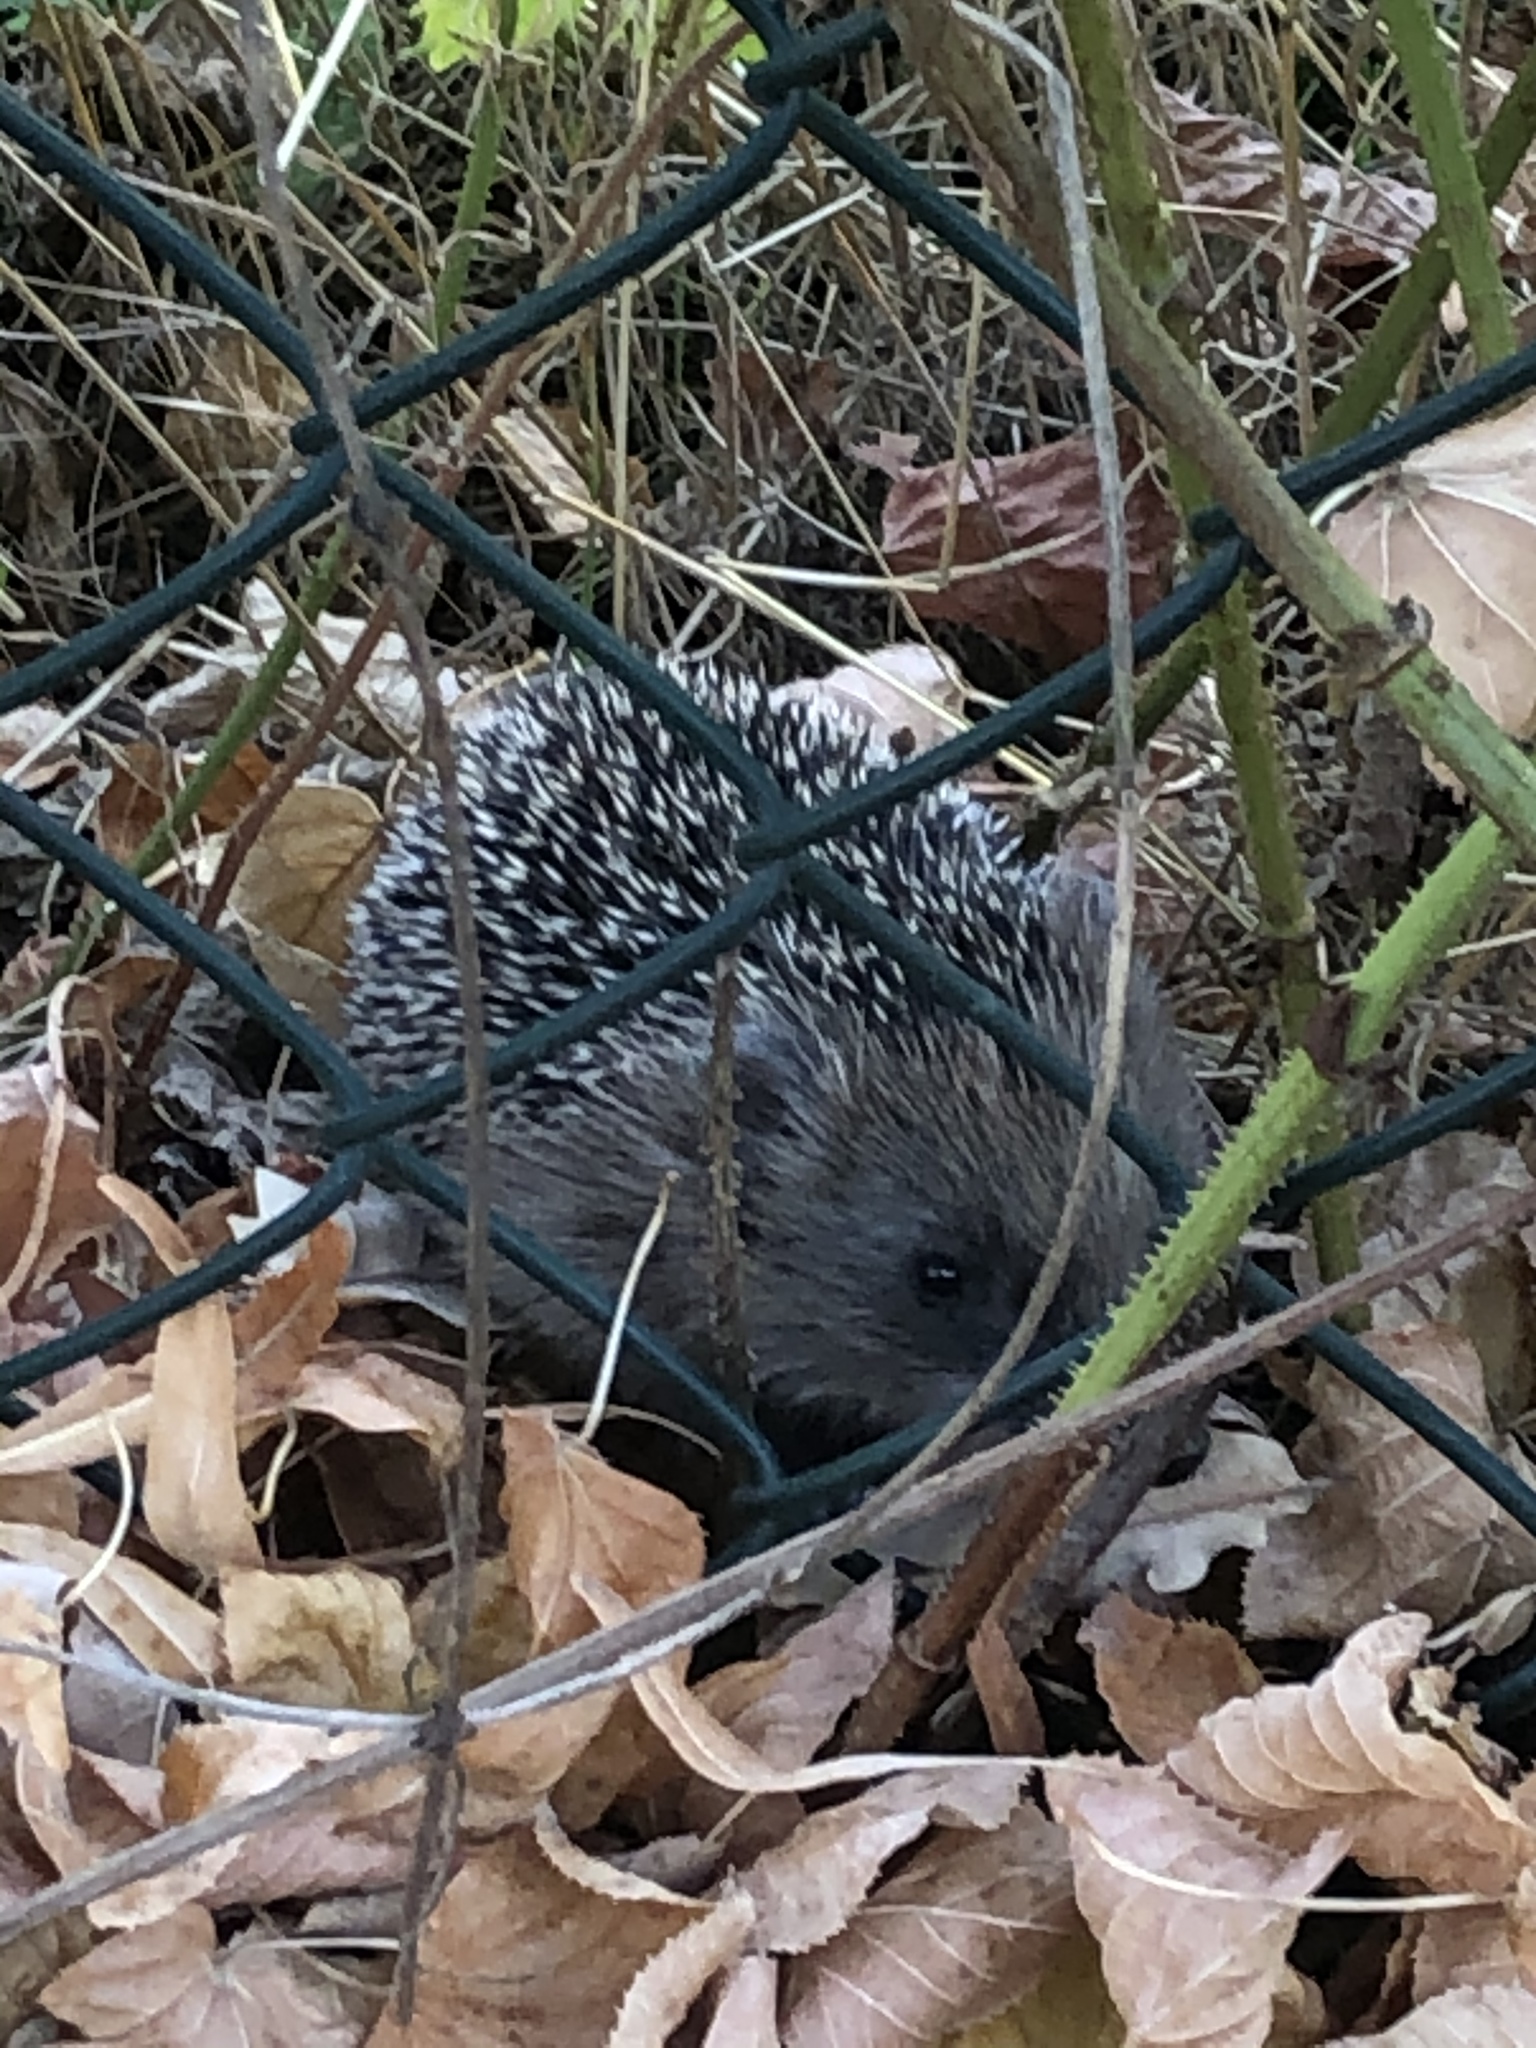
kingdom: Animalia
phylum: Chordata
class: Mammalia
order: Erinaceomorpha
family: Erinaceidae
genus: Erinaceus
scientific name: Erinaceus europaeus
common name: West european hedgehog
